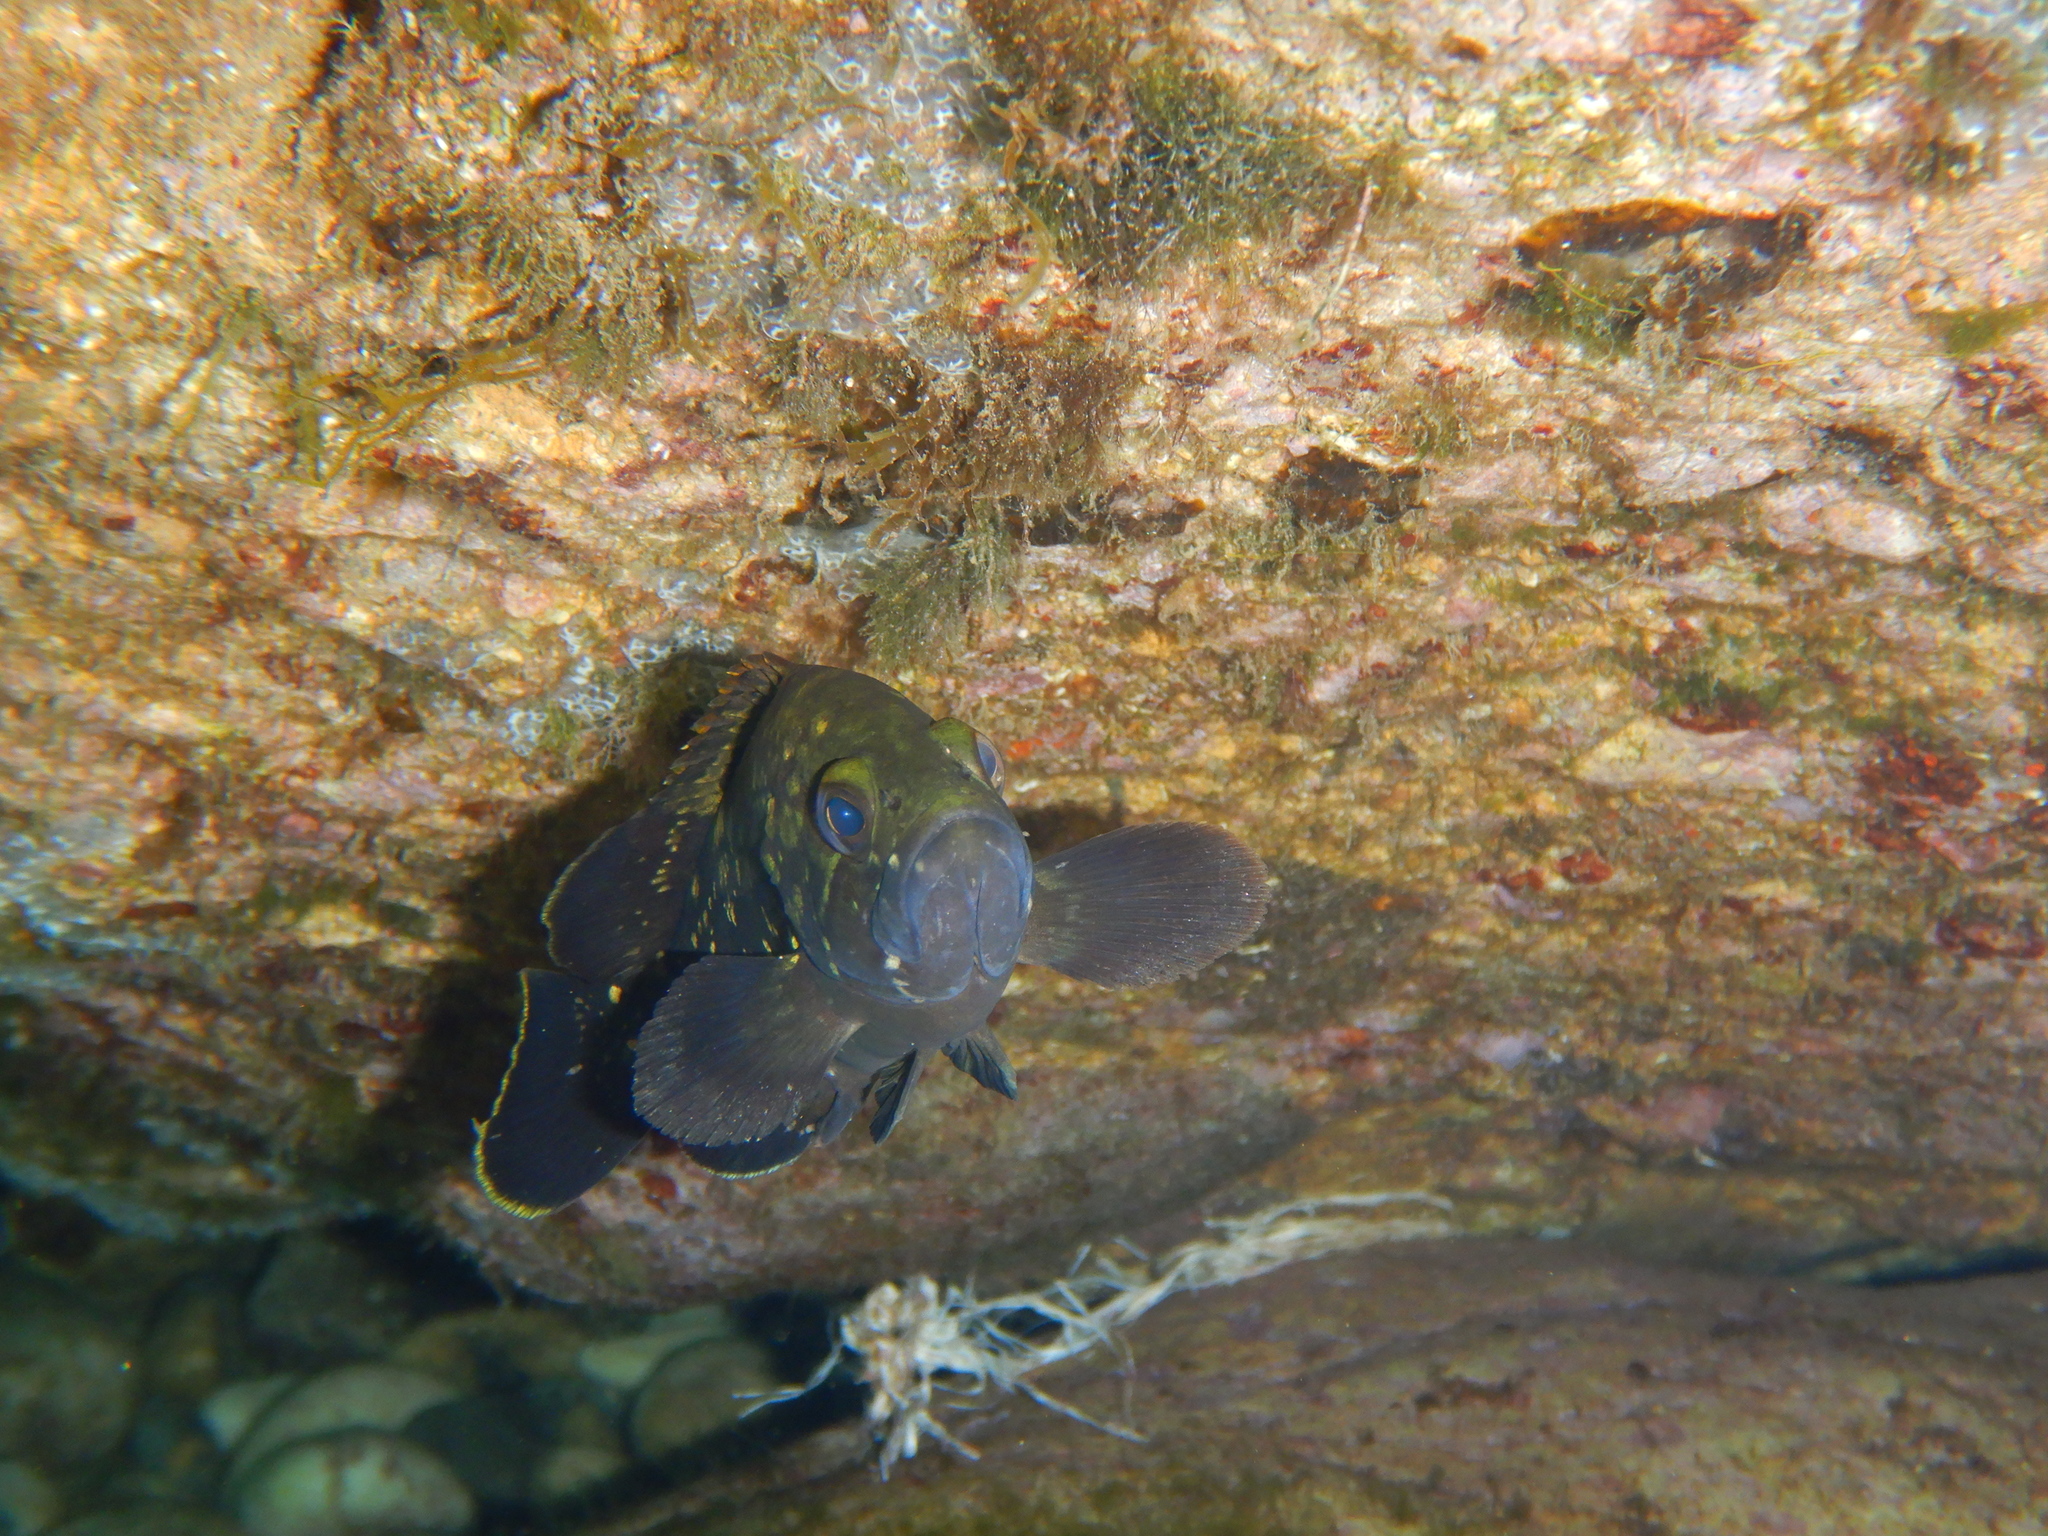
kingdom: Animalia
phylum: Chordata
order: Perciformes
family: Serranidae
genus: Epinephelus
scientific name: Epinephelus marginatus
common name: Dusky grouper
